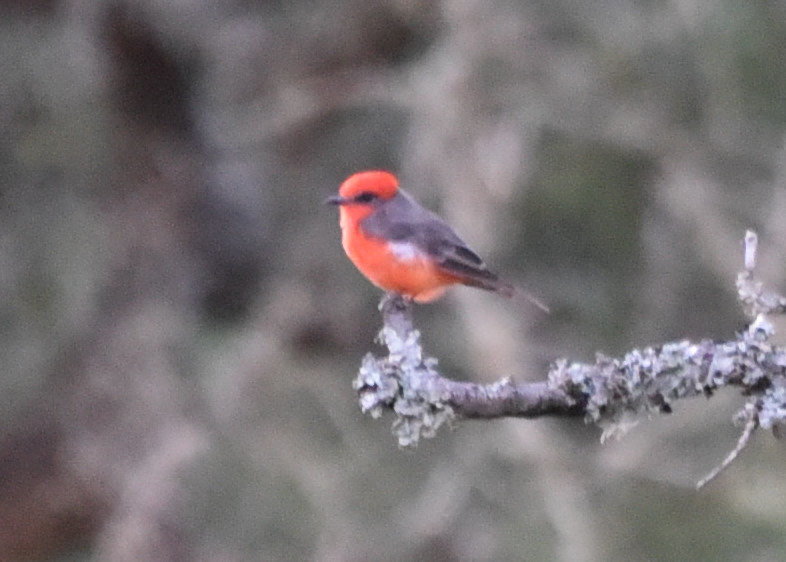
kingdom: Animalia
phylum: Chordata
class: Aves
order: Passeriformes
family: Tyrannidae
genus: Pyrocephalus
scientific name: Pyrocephalus rubinus
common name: Vermilion flycatcher
